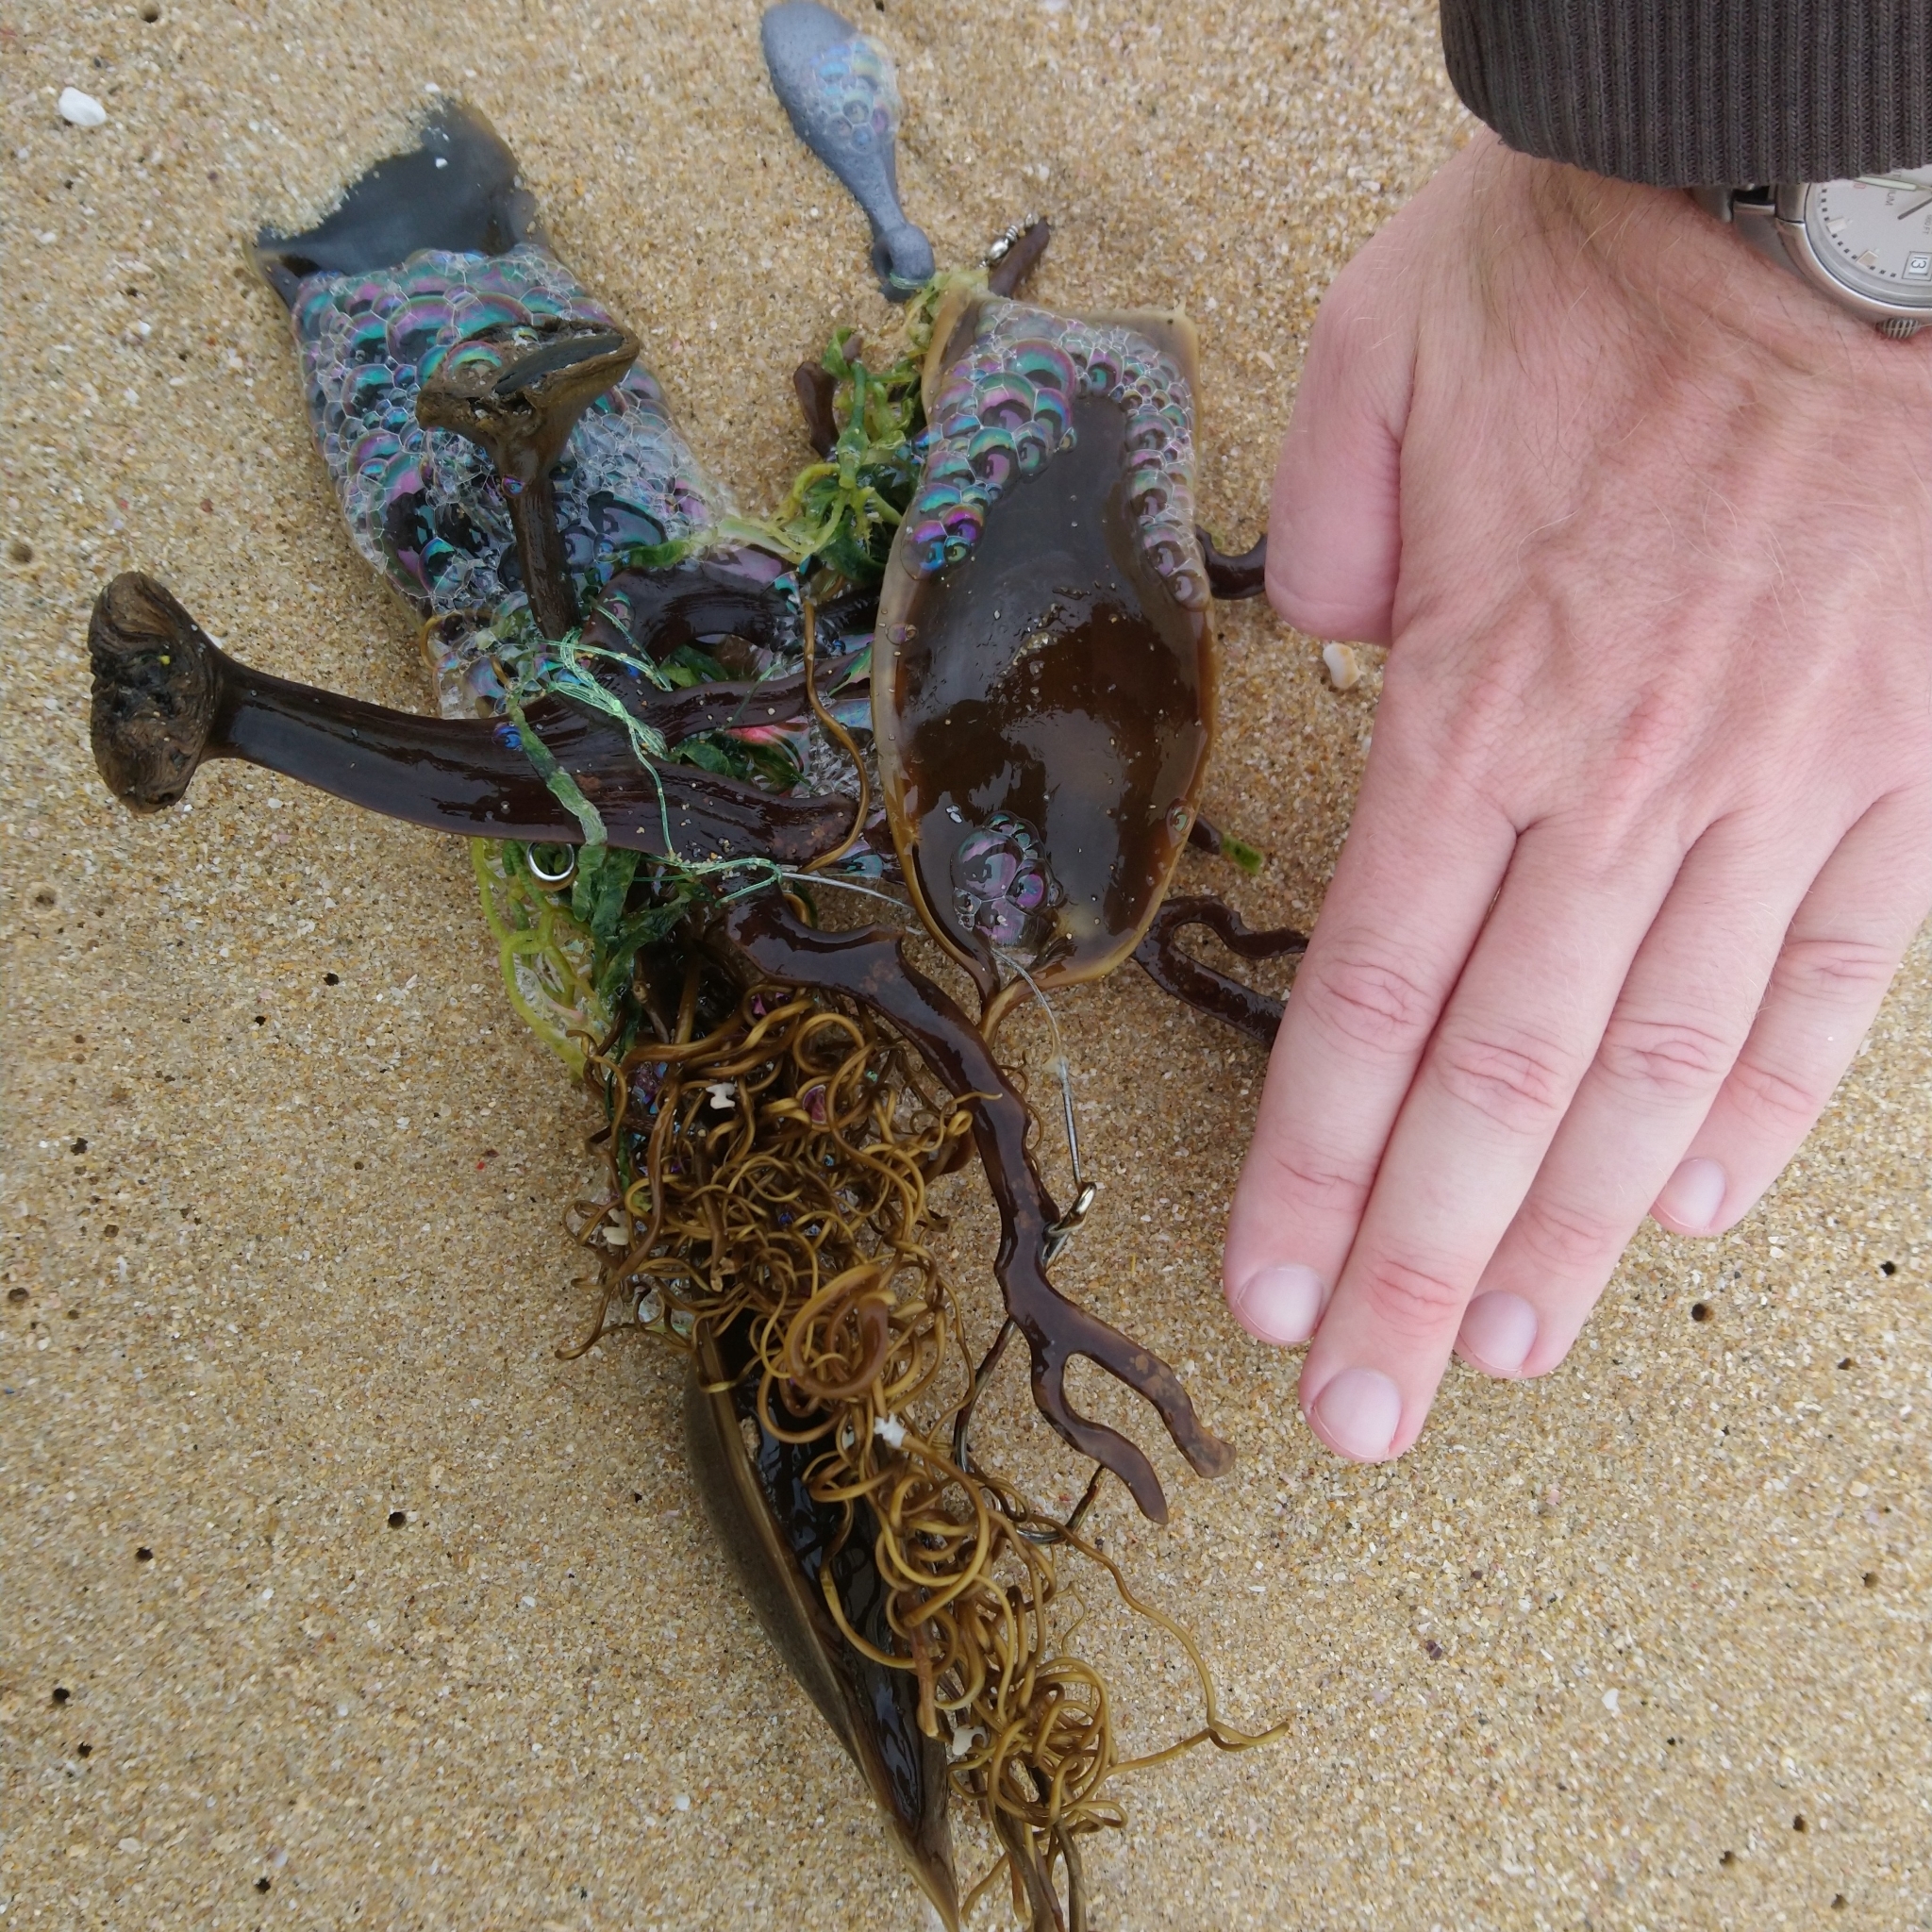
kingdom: Animalia
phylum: Chordata
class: Elasmobranchii
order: Carcharhiniformes
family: Scyliorhinidae
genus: Poroderma
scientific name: Poroderma africanum
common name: Pyjama shark
